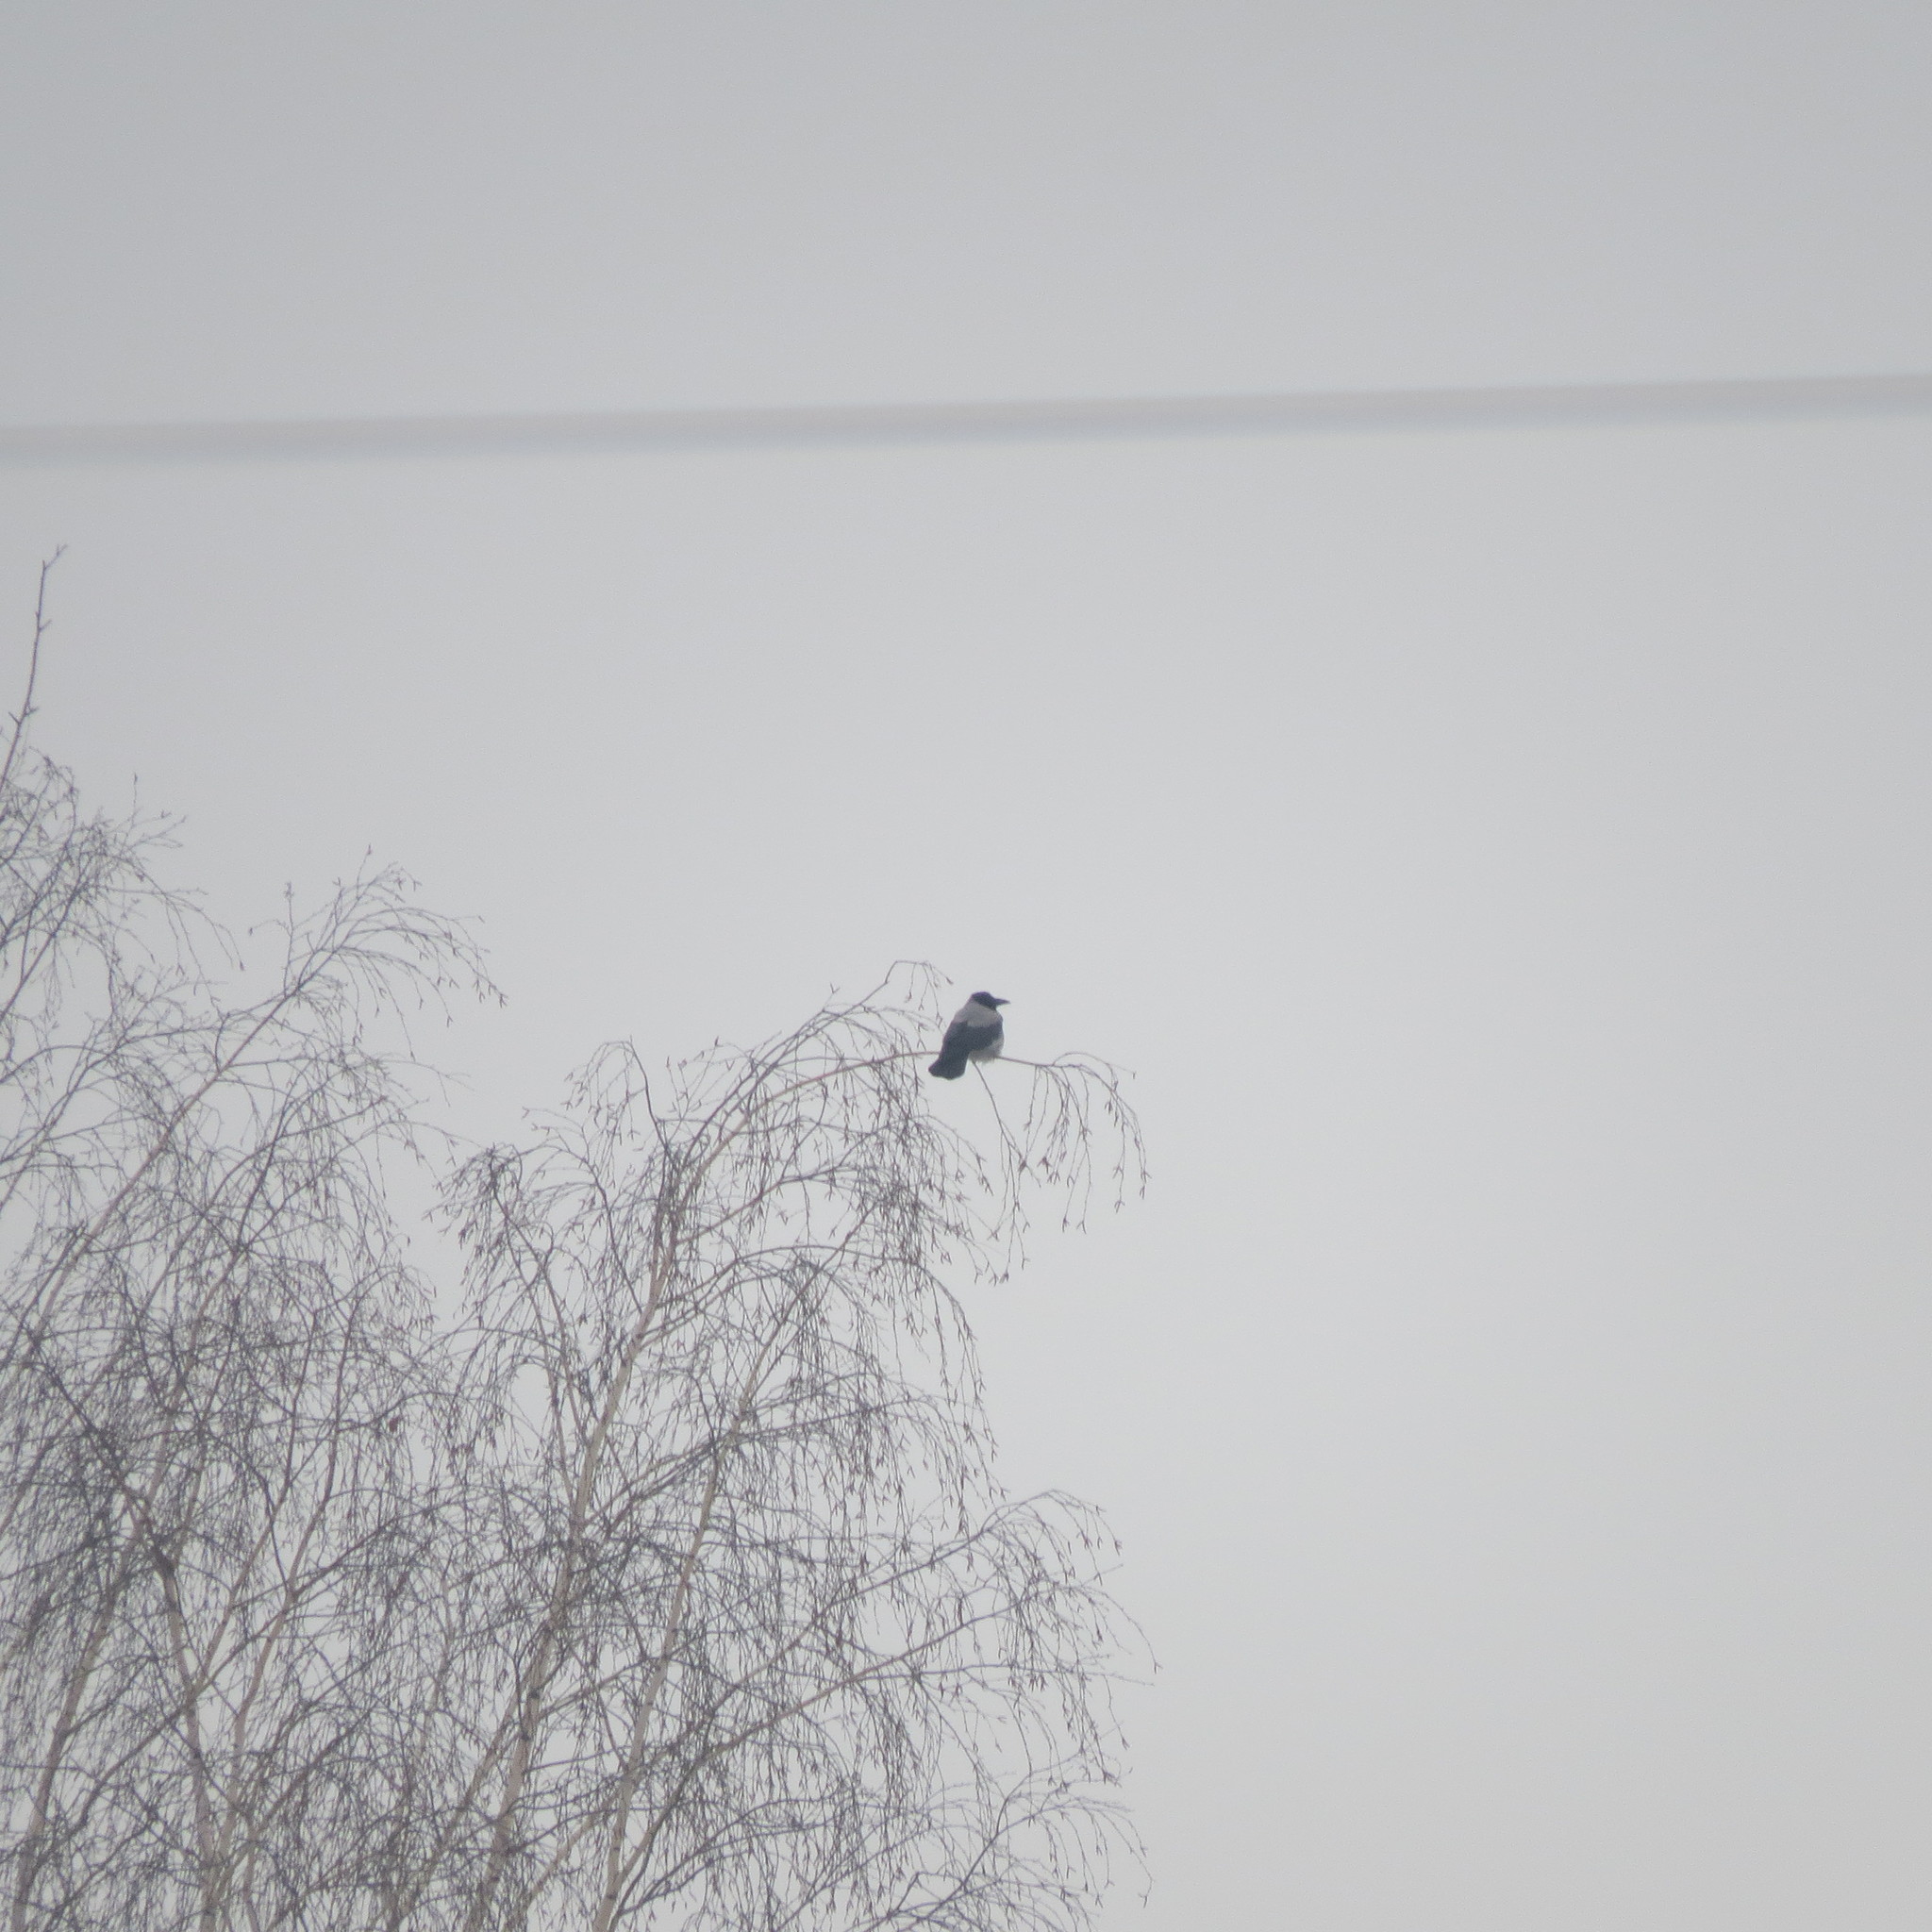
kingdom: Animalia
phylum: Chordata
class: Aves
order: Passeriformes
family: Corvidae
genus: Corvus
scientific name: Corvus cornix
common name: Hooded crow
